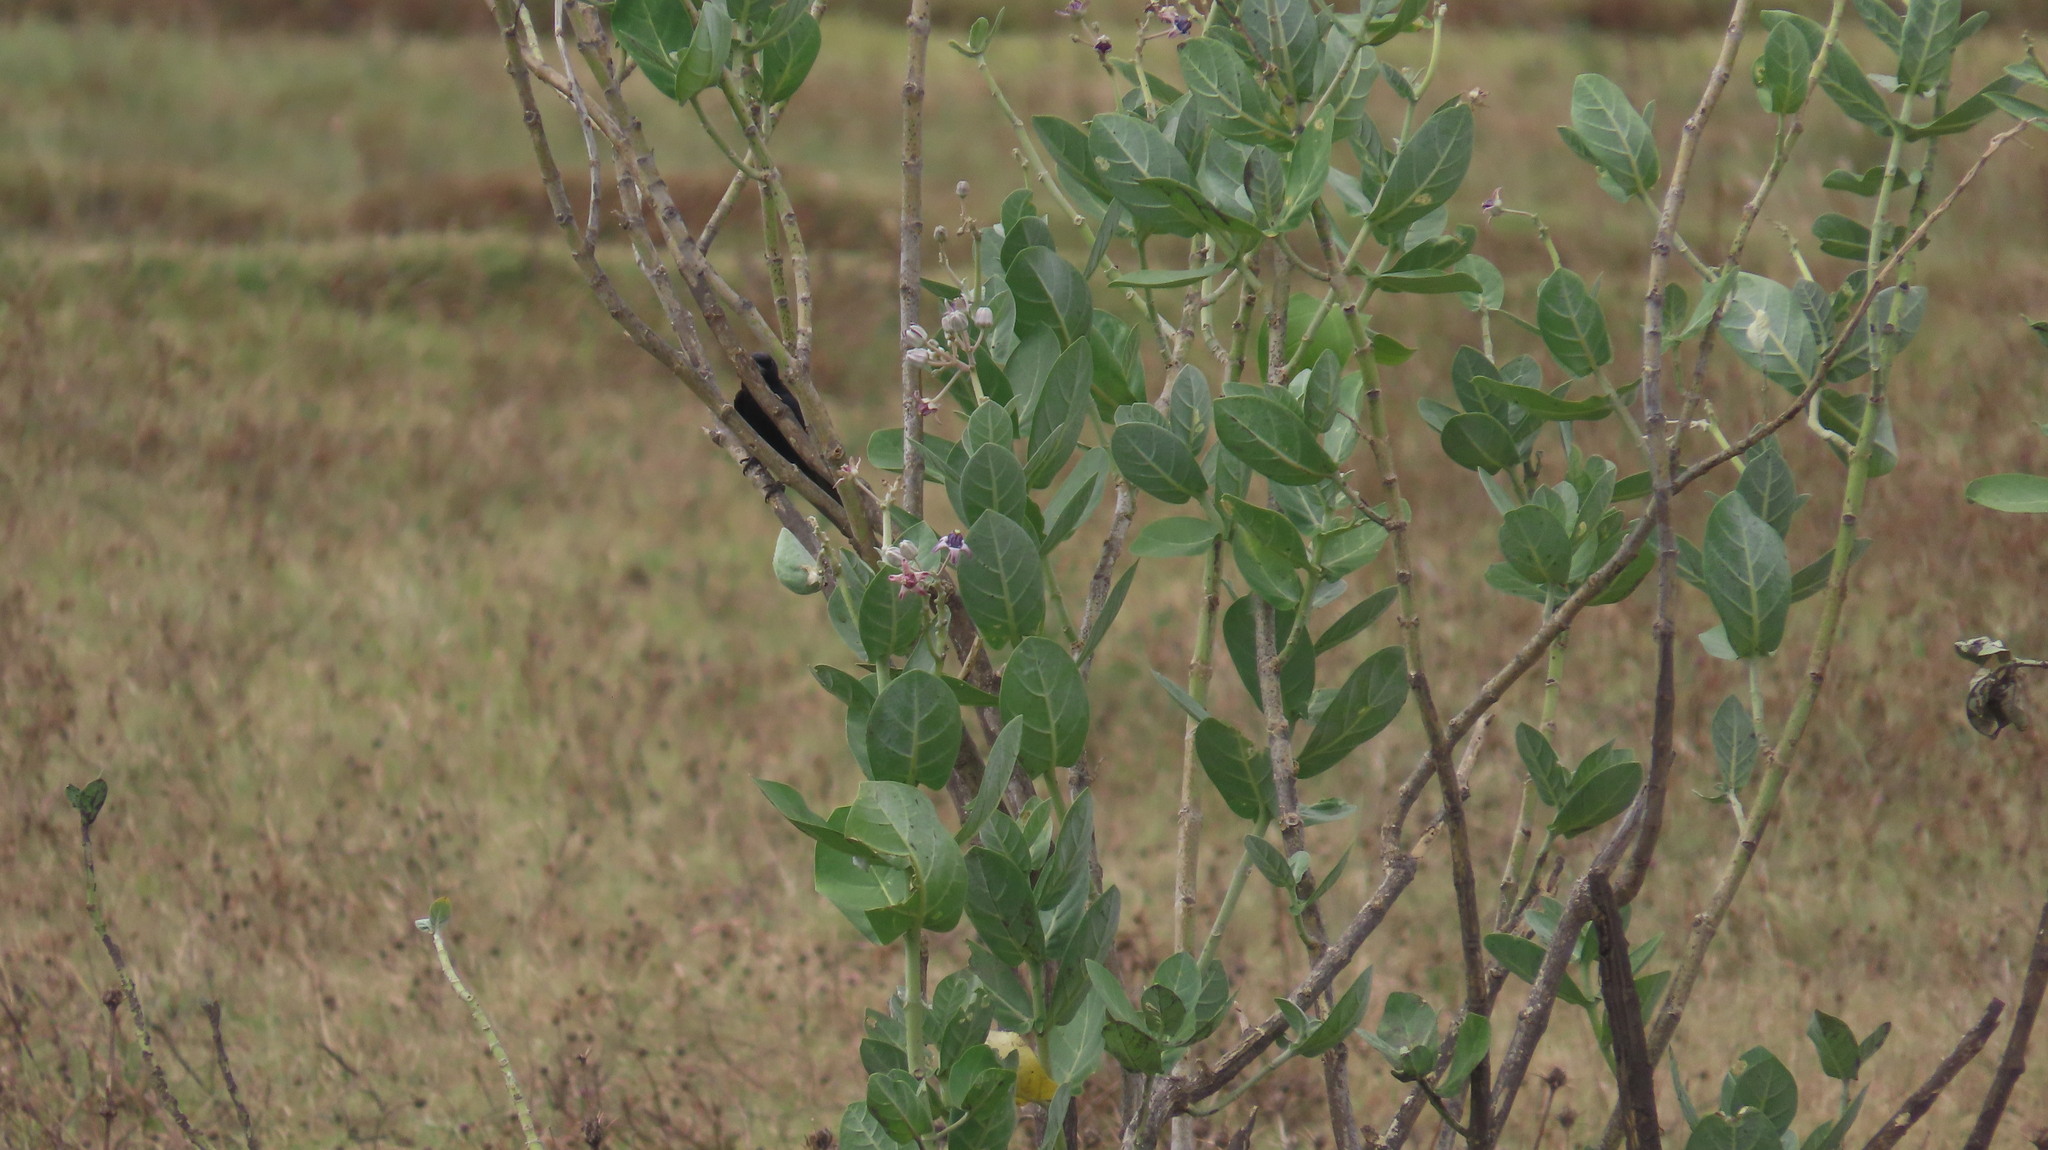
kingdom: Plantae
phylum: Tracheophyta
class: Magnoliopsida
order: Gentianales
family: Apocynaceae
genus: Calotropis
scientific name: Calotropis gigantea
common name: Crown flower
